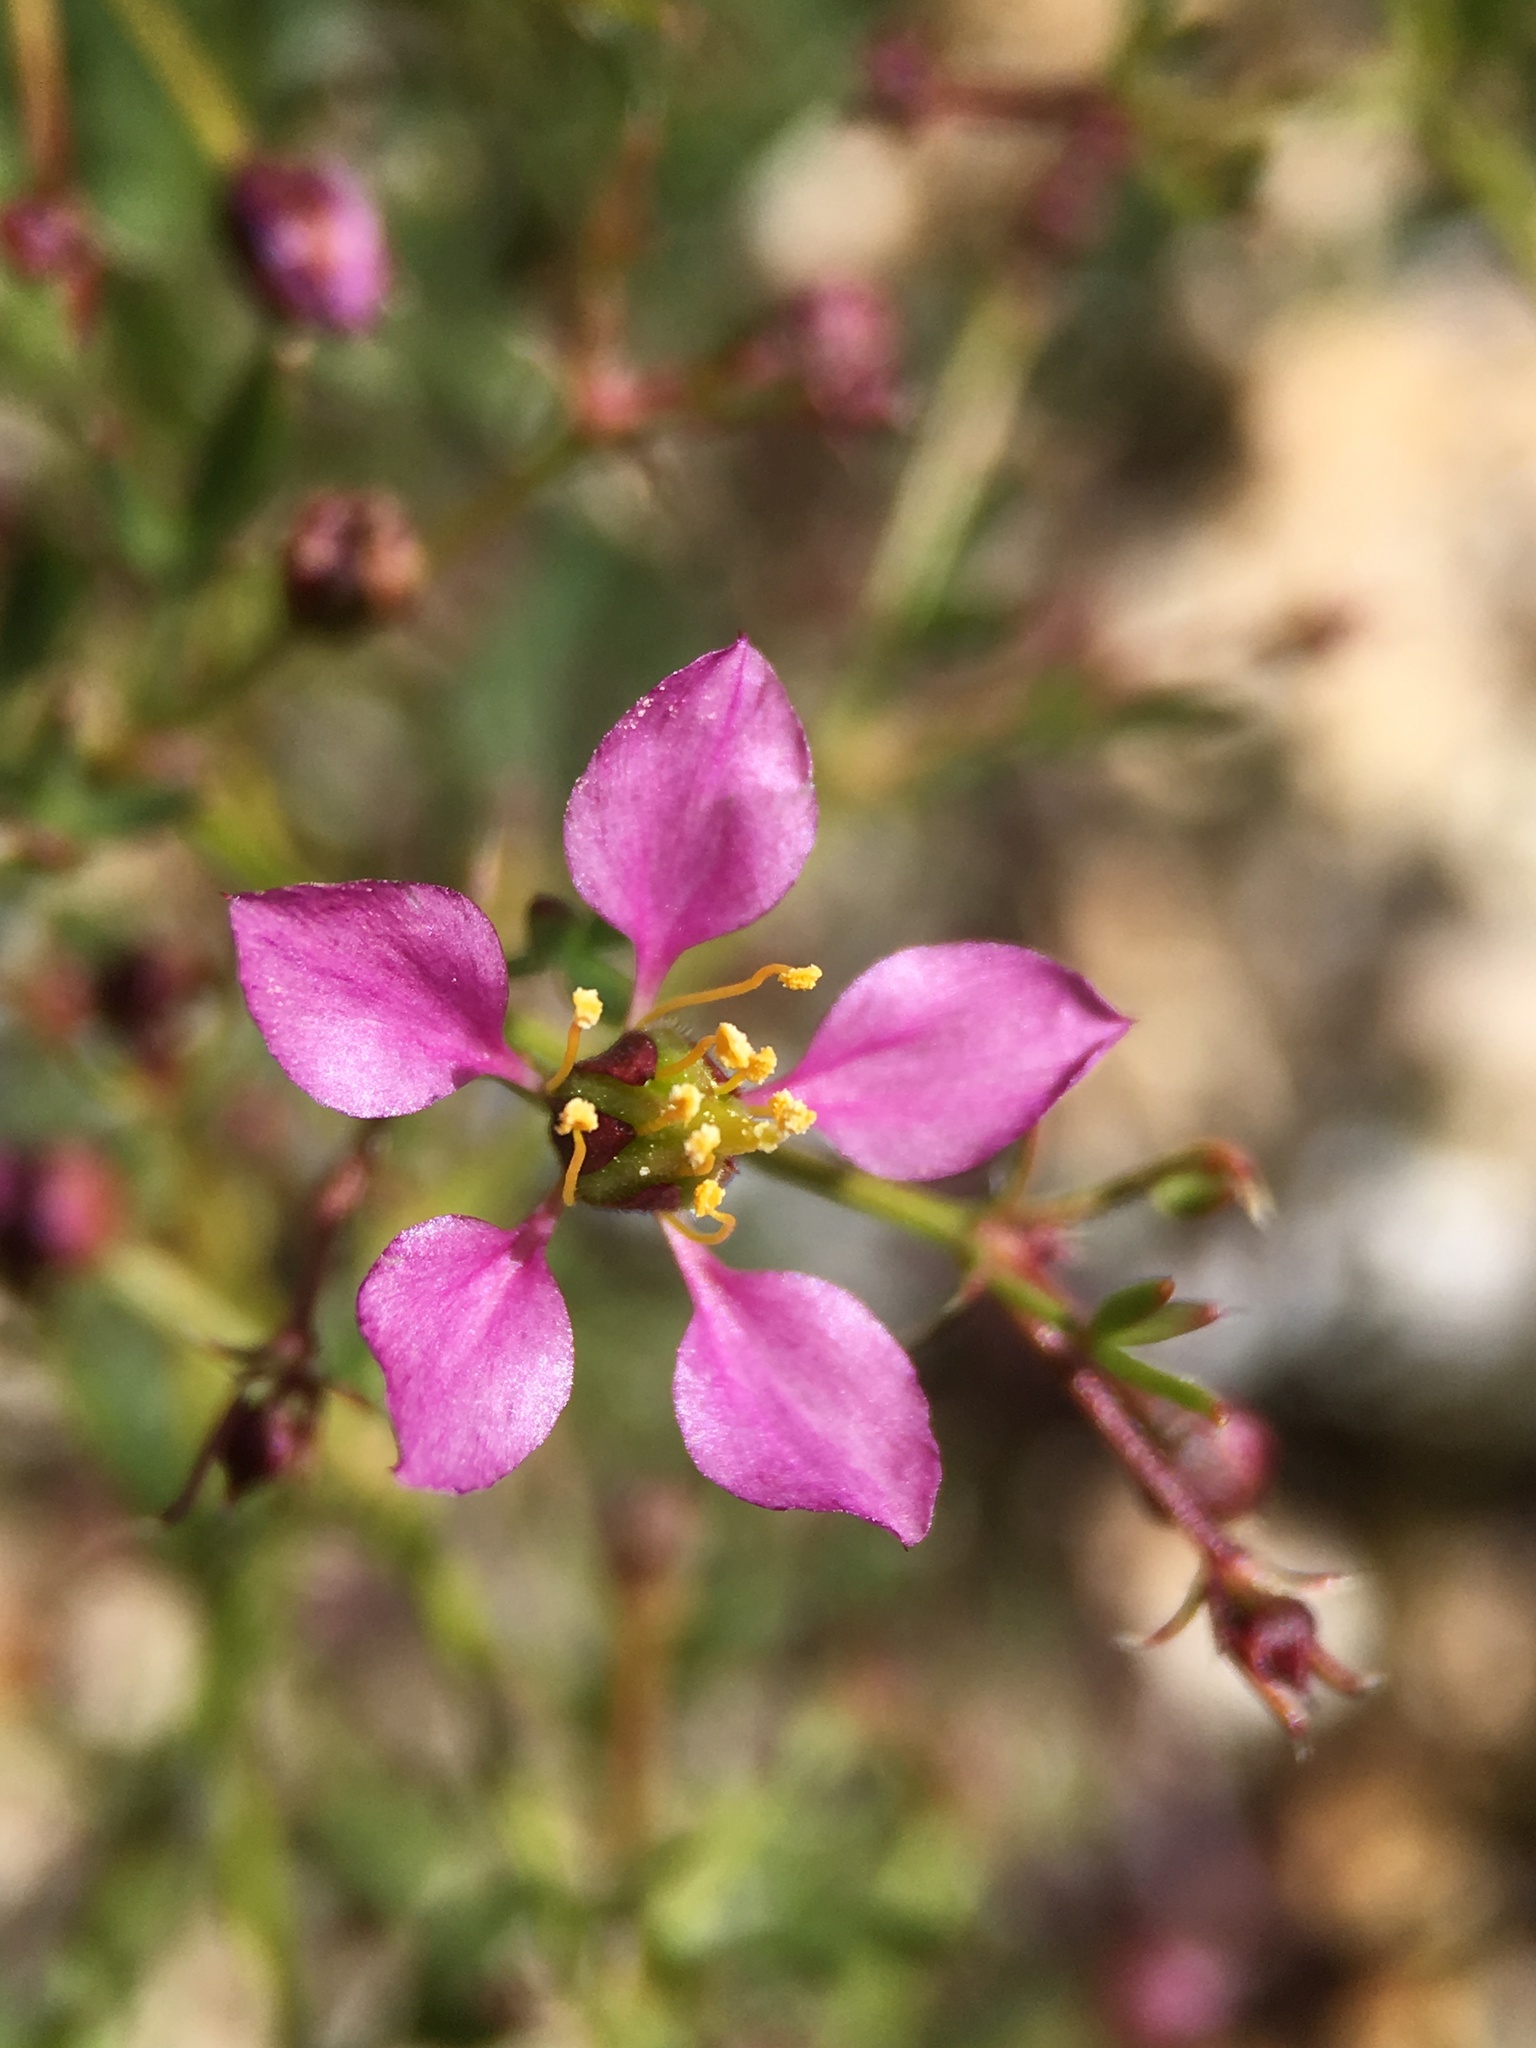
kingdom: Plantae
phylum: Tracheophyta
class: Magnoliopsida
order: Zygophyllales
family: Zygophyllaceae
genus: Fagonia
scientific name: Fagonia laevis
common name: California fagonbush
